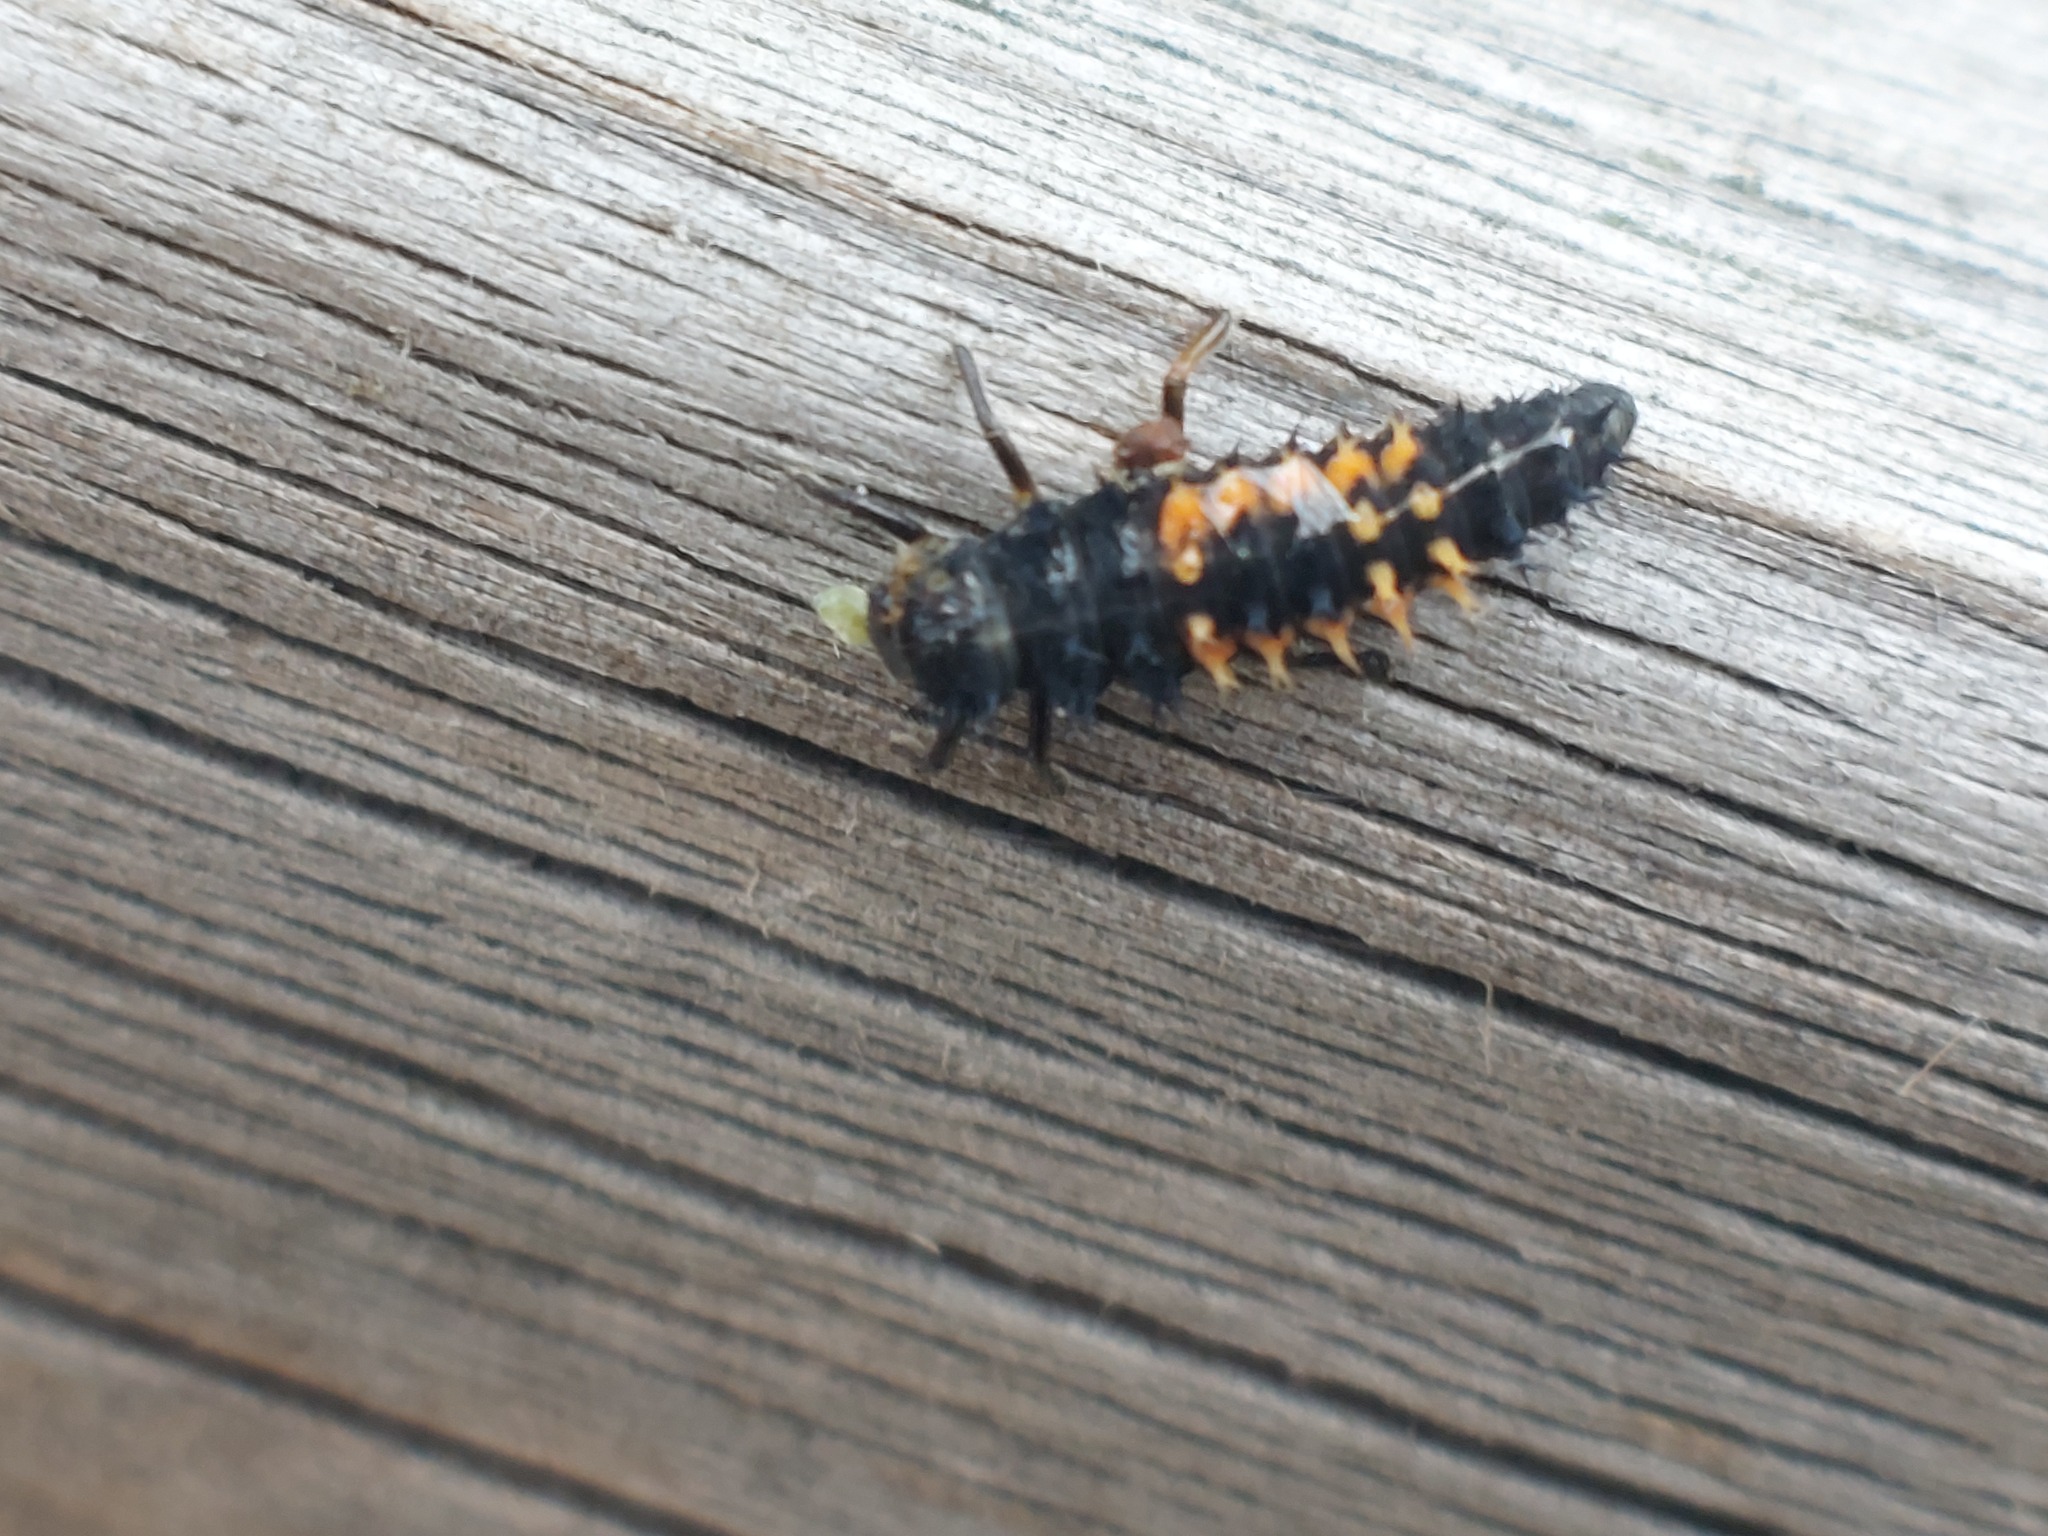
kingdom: Animalia
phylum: Arthropoda
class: Insecta
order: Coleoptera
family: Coccinellidae
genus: Harmonia
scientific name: Harmonia axyridis
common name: Harlequin ladybird
